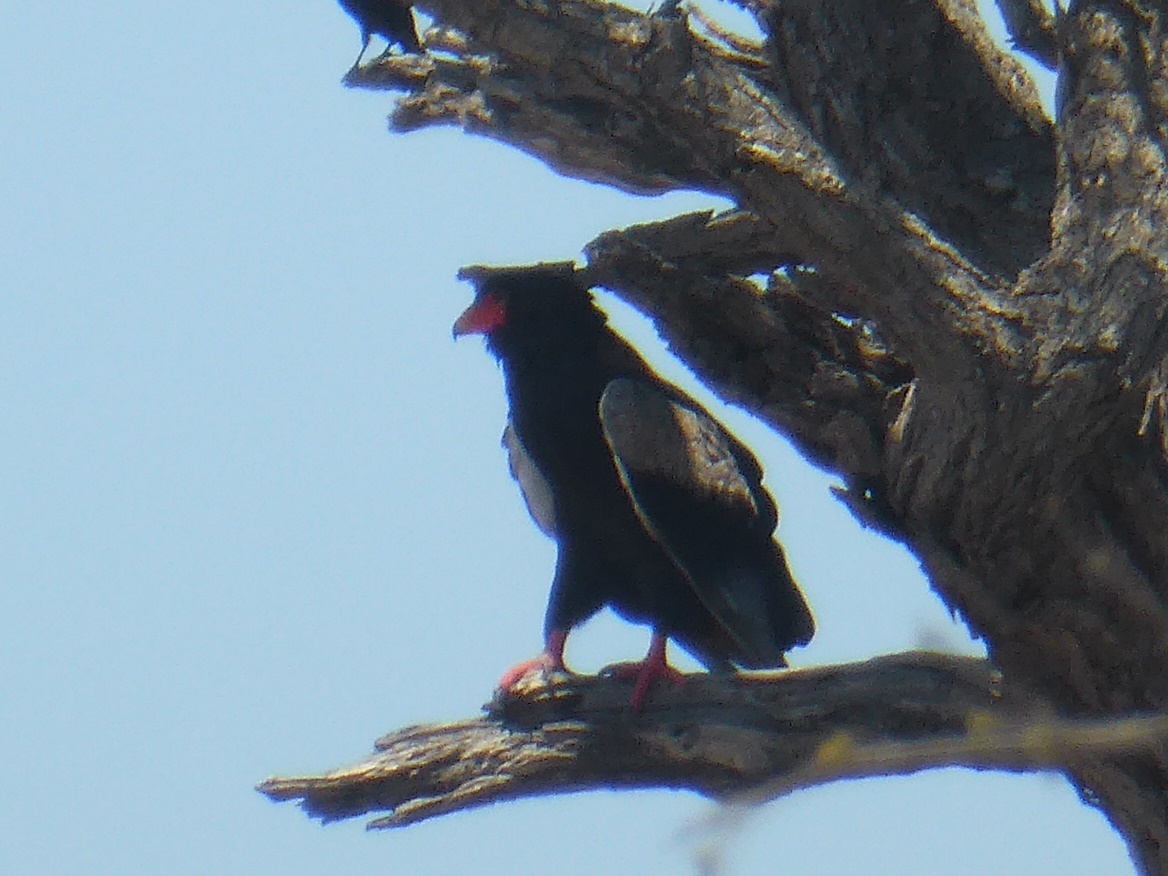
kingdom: Animalia
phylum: Chordata
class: Aves
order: Accipitriformes
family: Accipitridae
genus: Terathopius
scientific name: Terathopius ecaudatus
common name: Bateleur
